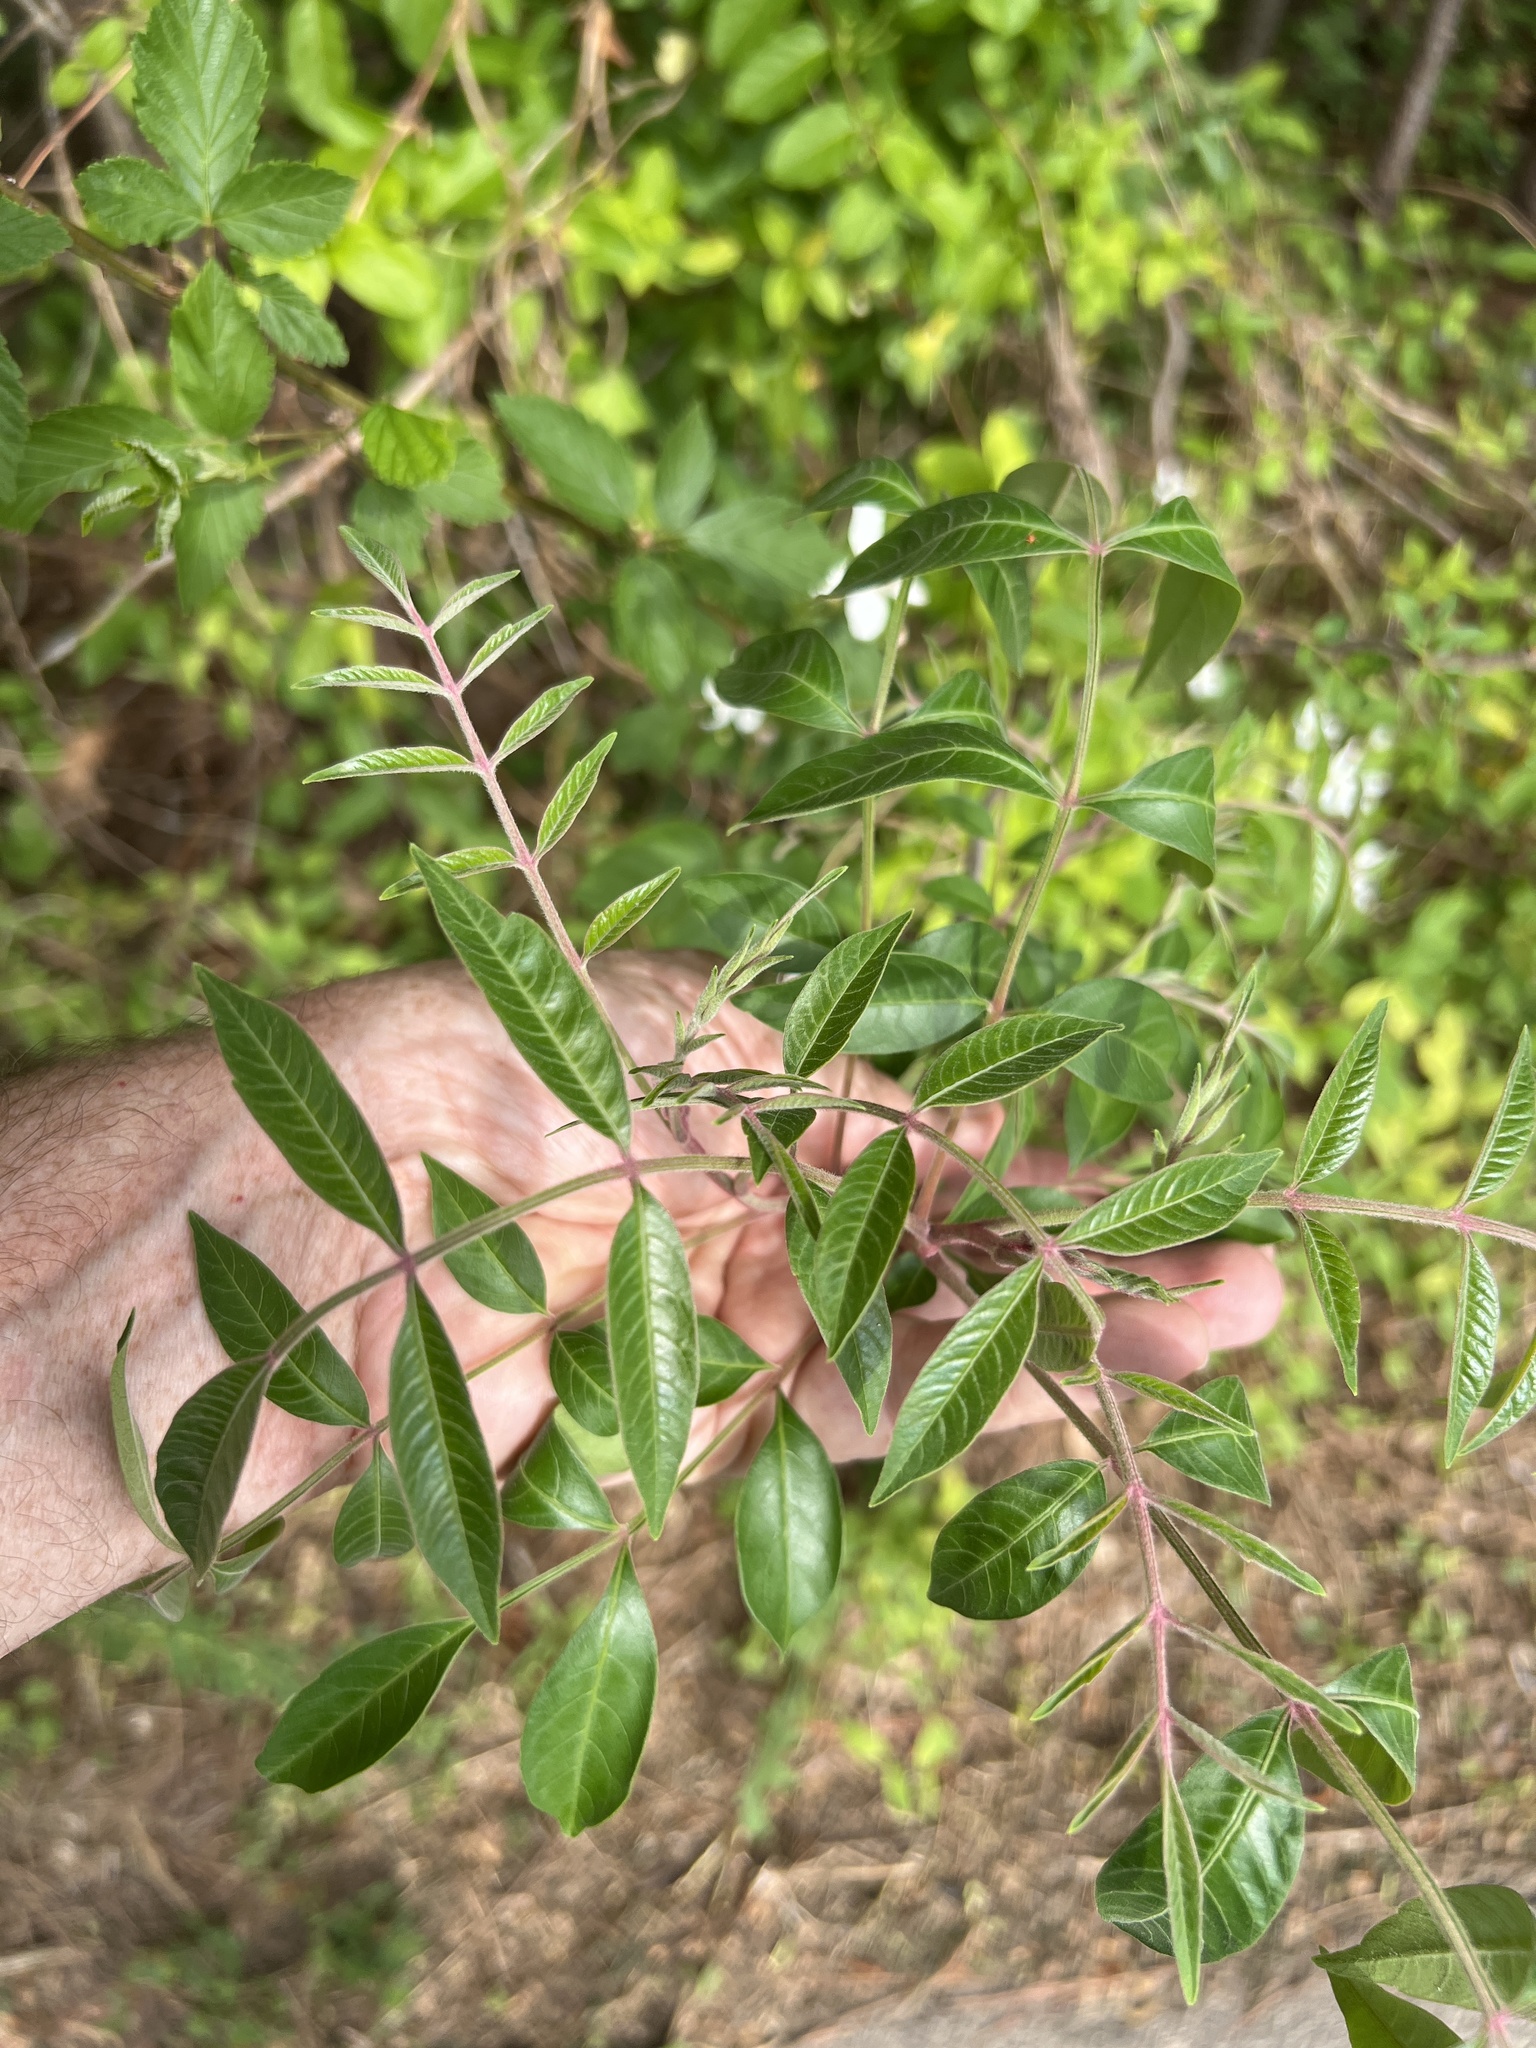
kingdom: Plantae
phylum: Tracheophyta
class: Magnoliopsida
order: Sapindales
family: Anacardiaceae
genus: Rhus
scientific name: Rhus copallina
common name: Shining sumac
